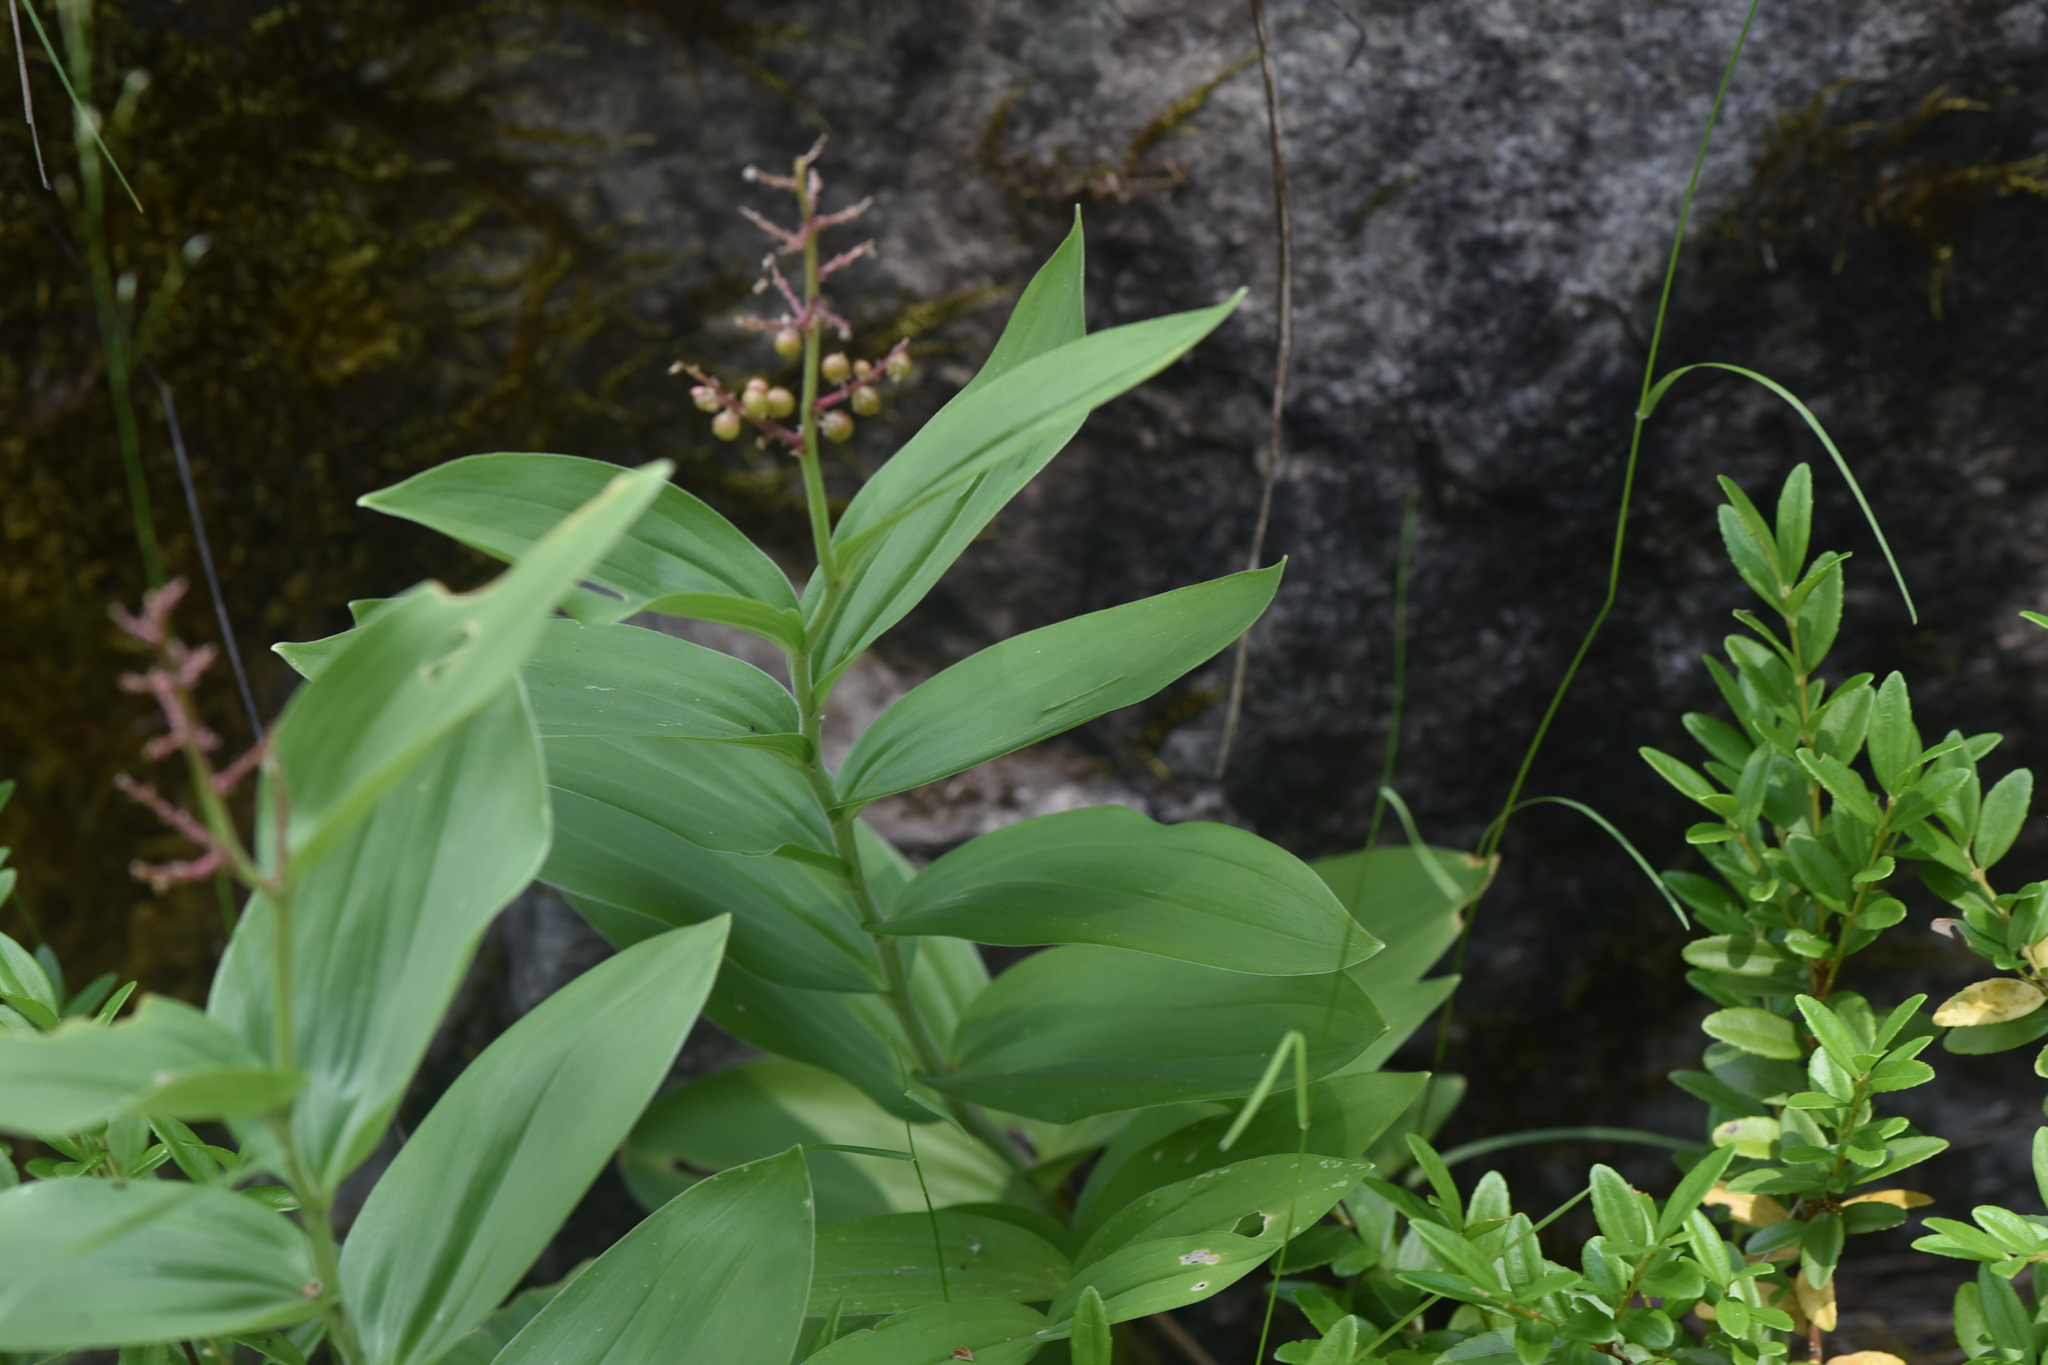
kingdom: Plantae
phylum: Tracheophyta
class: Liliopsida
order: Asparagales
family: Asparagaceae
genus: Maianthemum
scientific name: Maianthemum racemosum
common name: False spikenard
